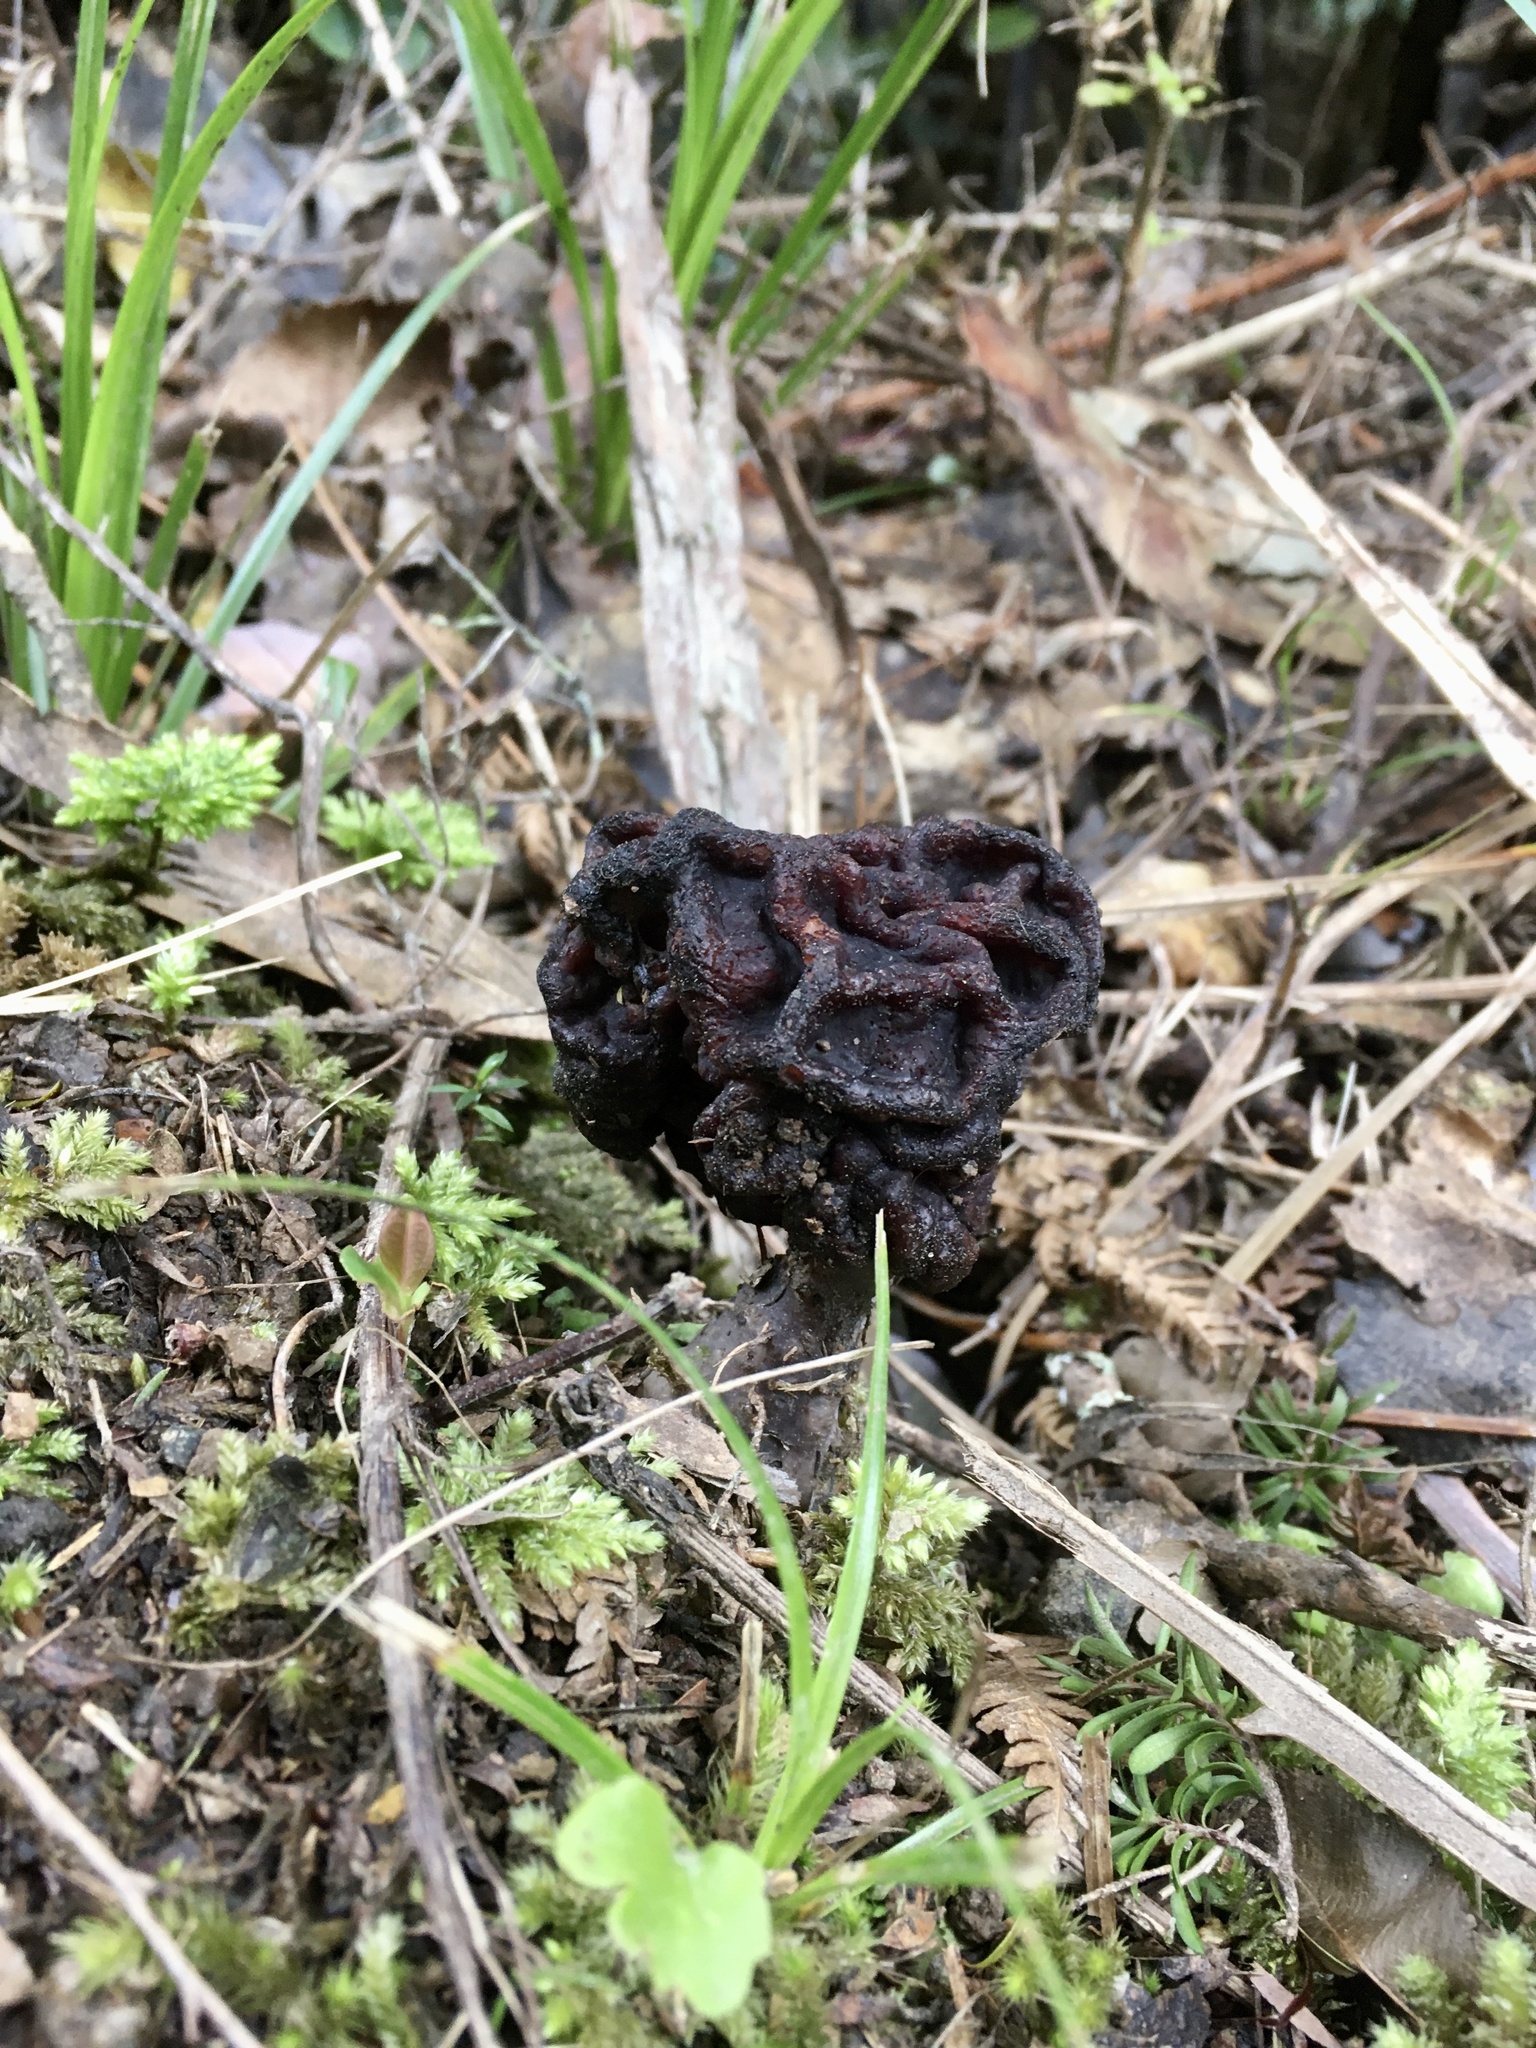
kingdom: Fungi
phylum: Ascomycota
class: Pezizomycetes
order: Pezizales
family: Discinaceae
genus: Gyromitra
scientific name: Gyromitra tasmanica
